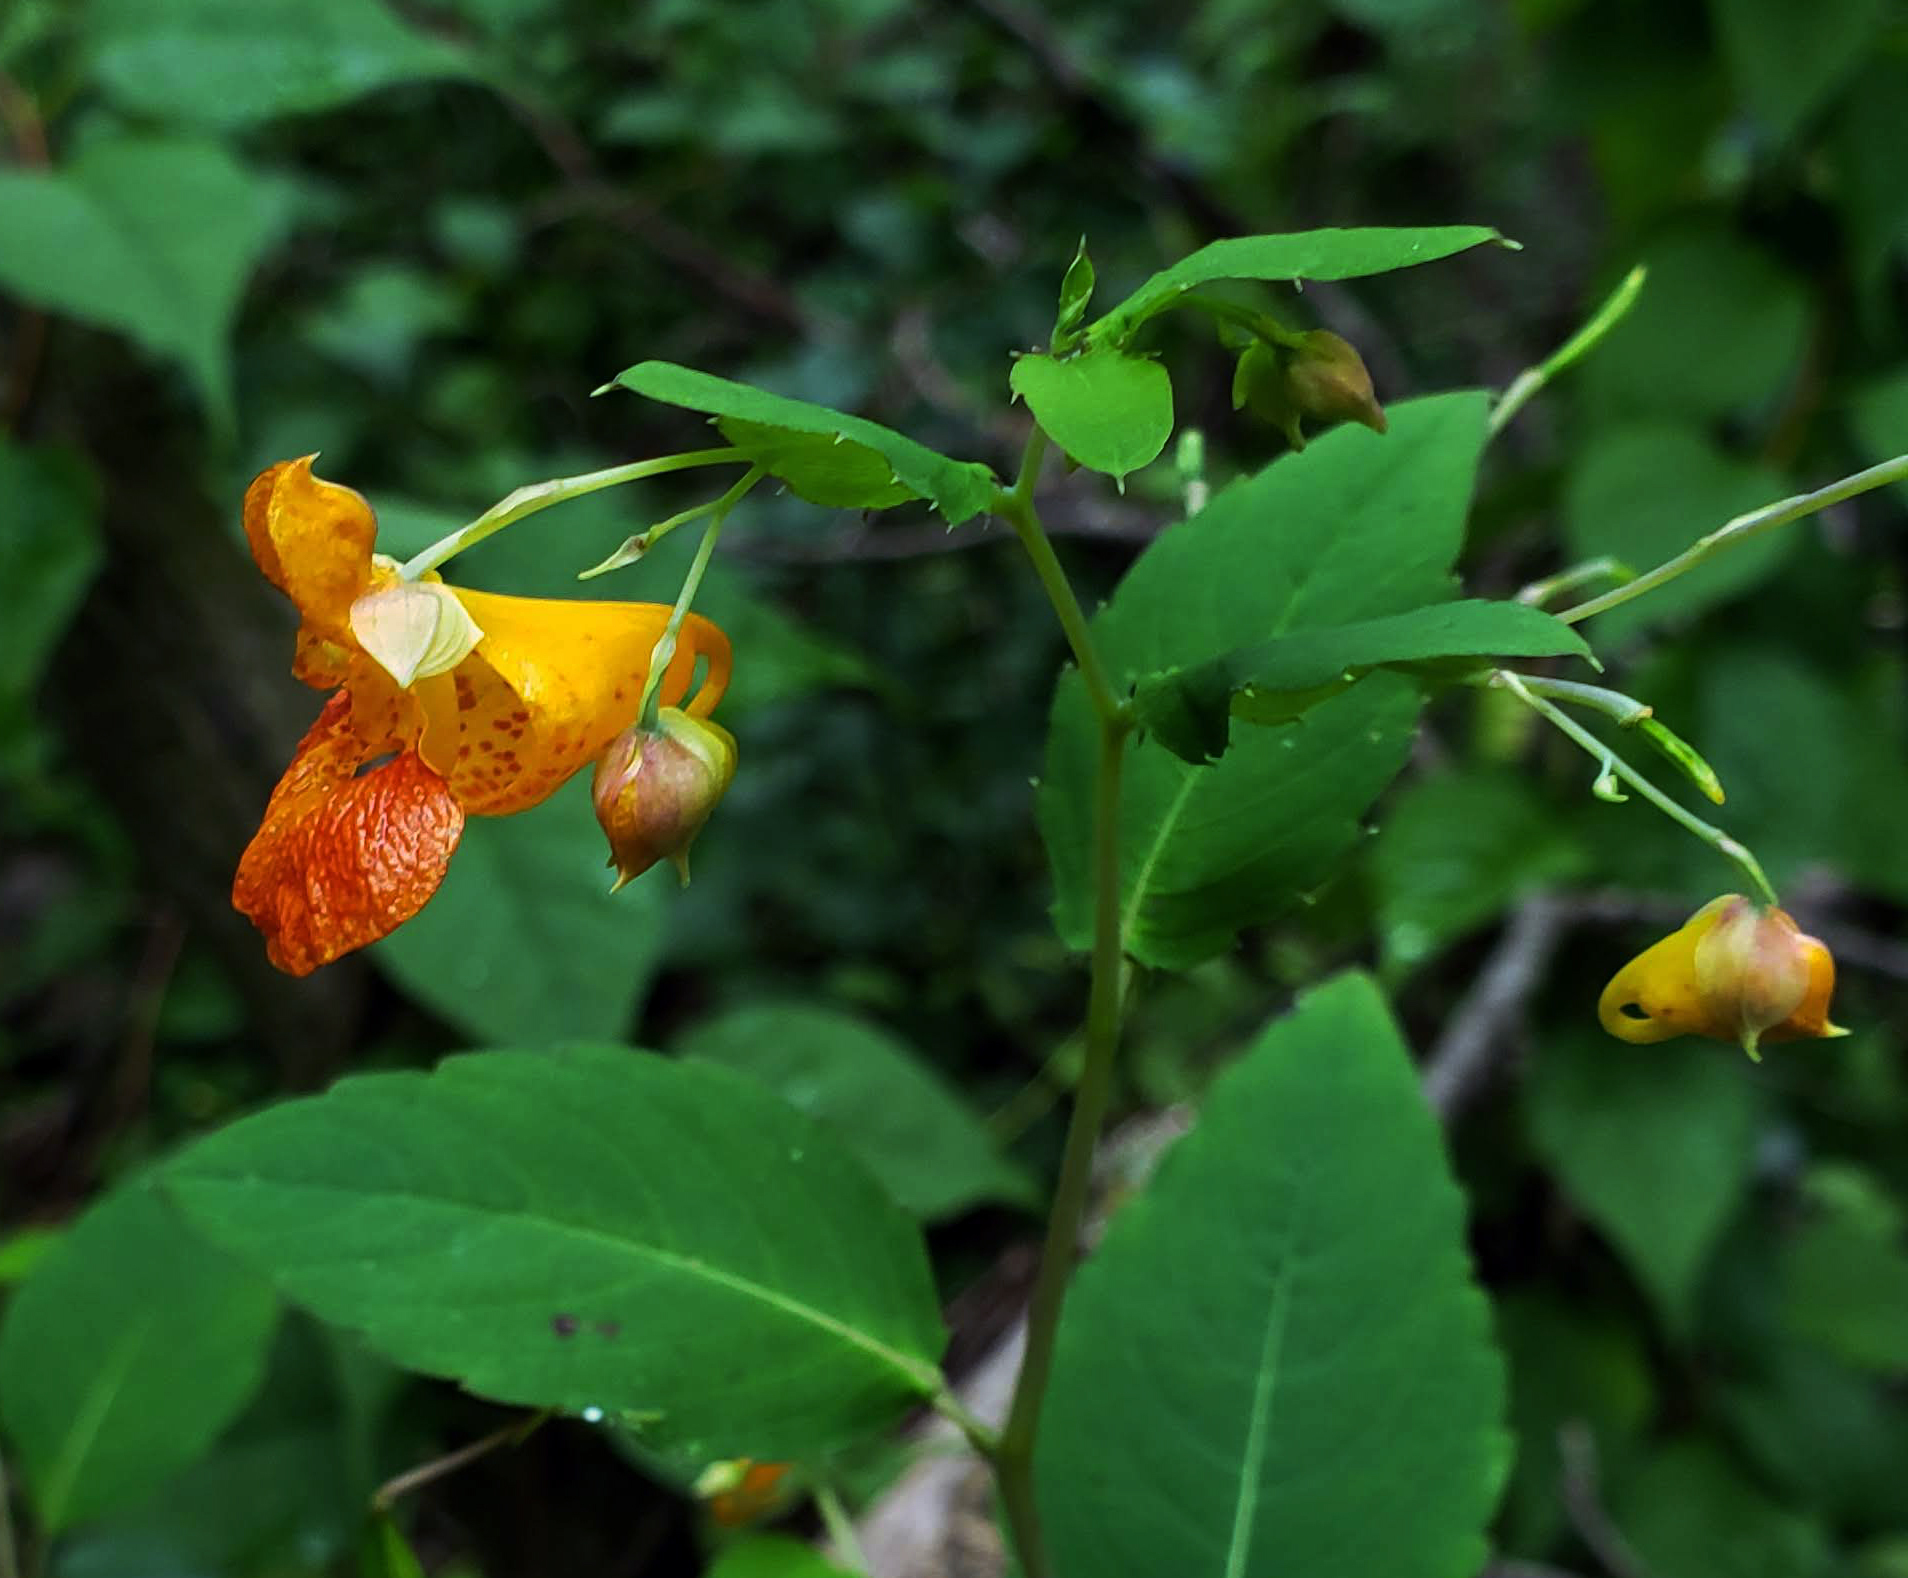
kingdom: Plantae
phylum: Tracheophyta
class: Magnoliopsida
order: Ericales
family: Balsaminaceae
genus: Impatiens
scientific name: Impatiens capensis
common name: Orange balsam
